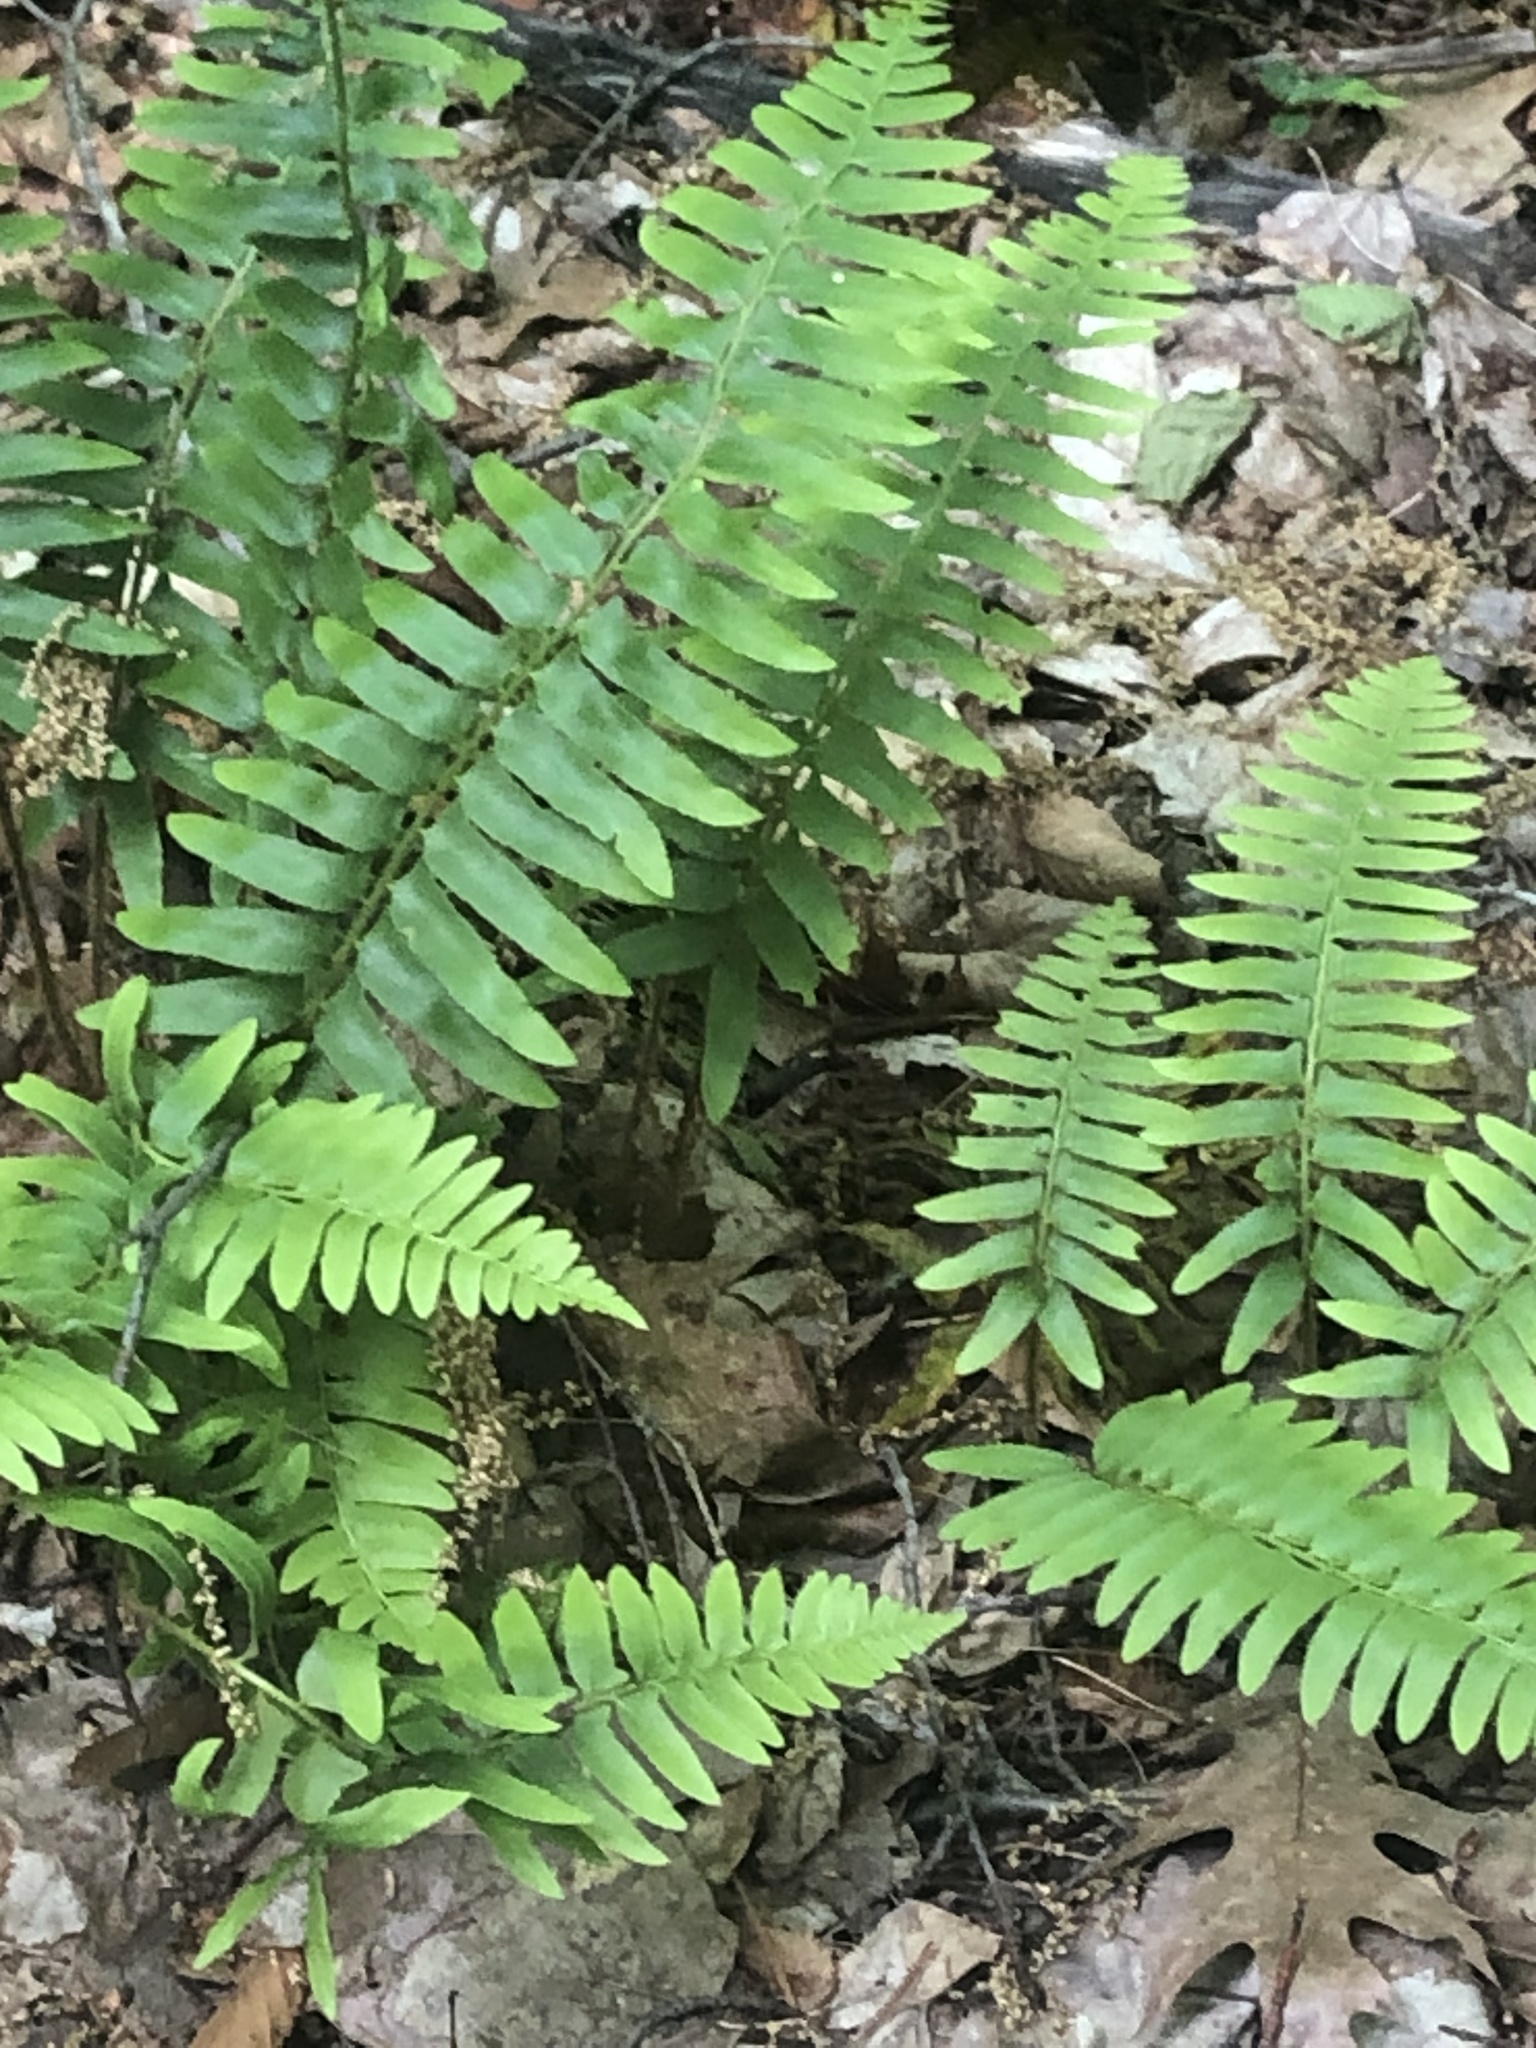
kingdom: Plantae
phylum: Tracheophyta
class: Polypodiopsida
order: Polypodiales
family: Dryopteridaceae
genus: Polystichum
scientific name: Polystichum acrostichoides
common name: Christmas fern
